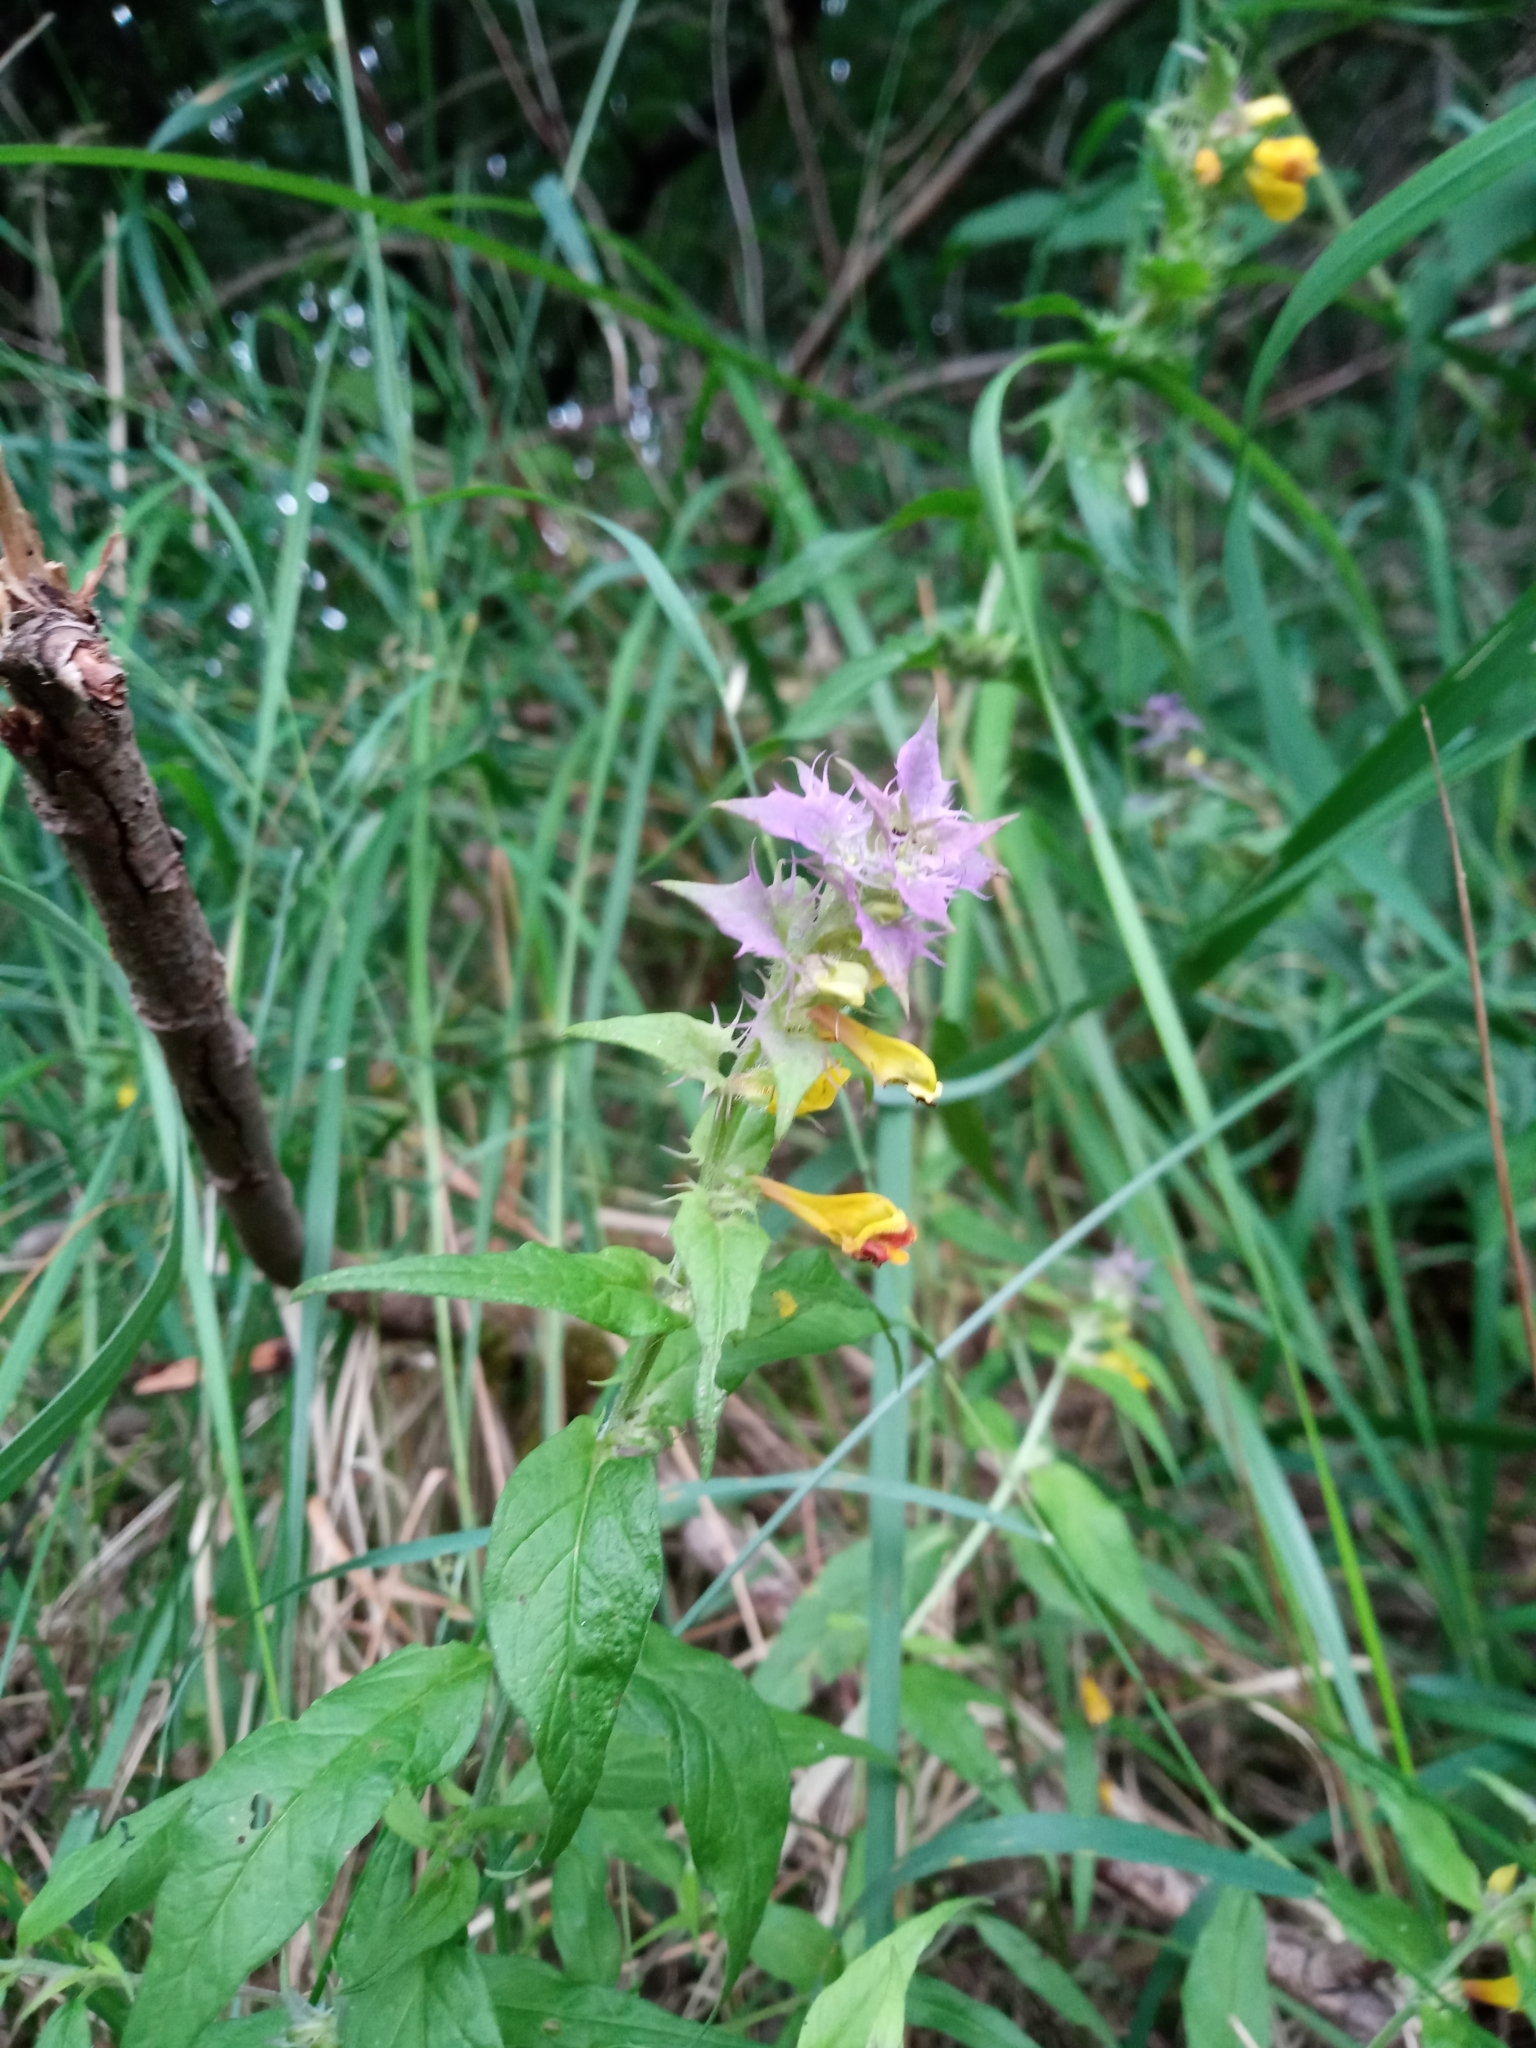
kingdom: Plantae
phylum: Tracheophyta
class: Magnoliopsida
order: Lamiales
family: Orobanchaceae
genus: Melampyrum
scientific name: Melampyrum nemorosum
